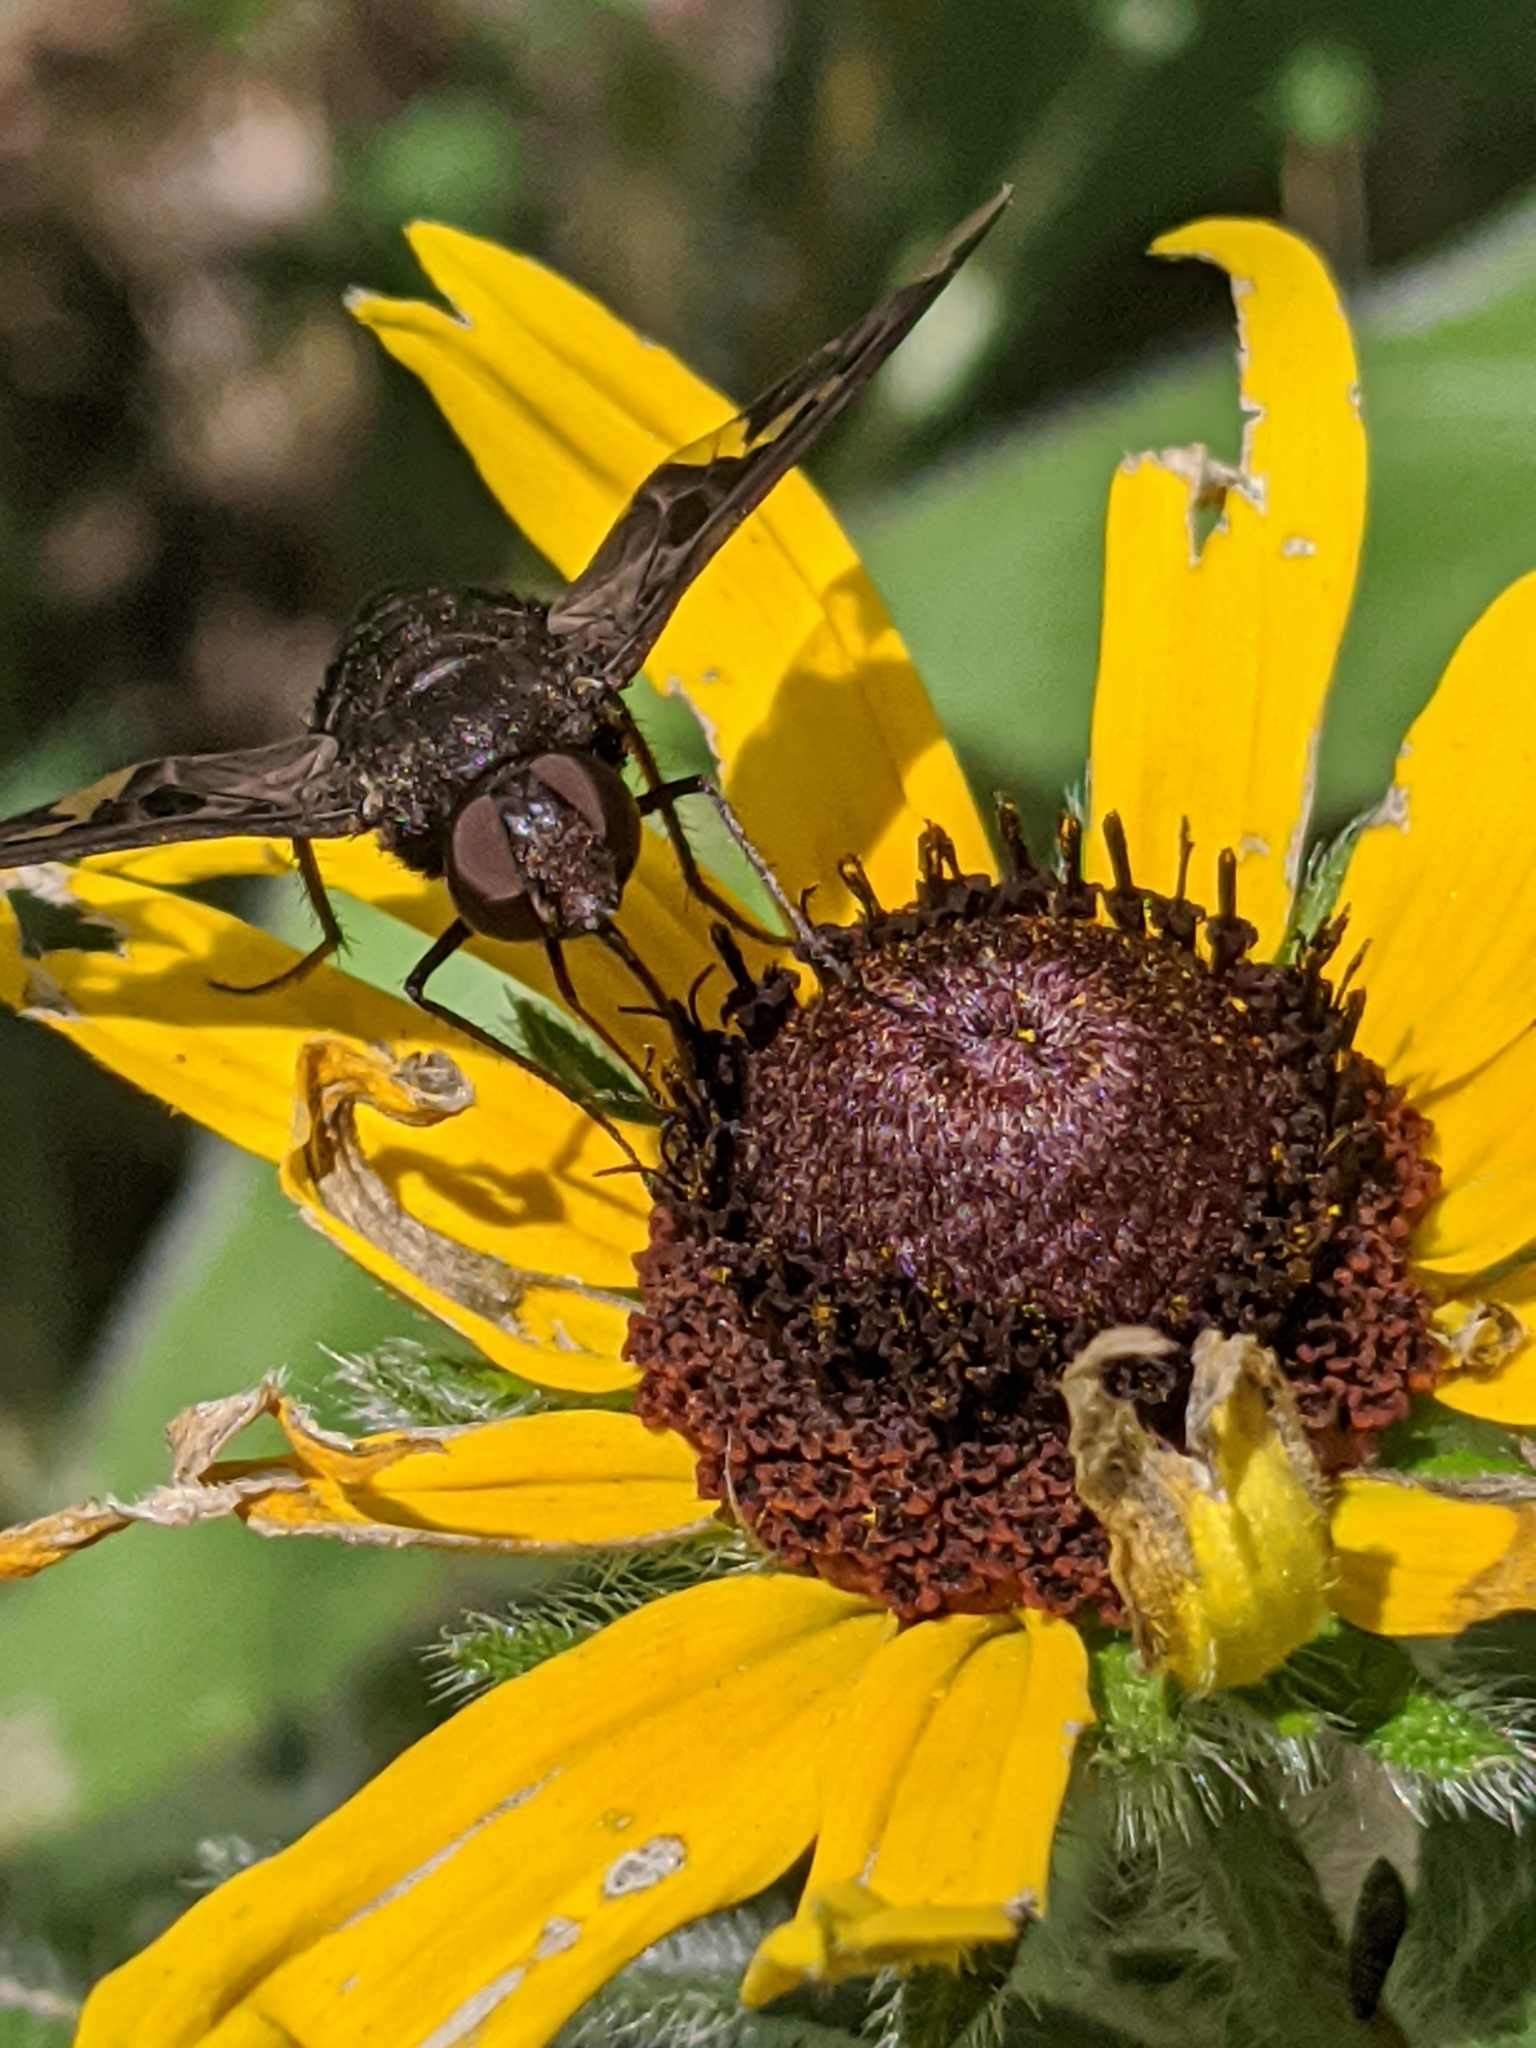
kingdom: Animalia
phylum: Arthropoda
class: Insecta
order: Diptera
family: Bombyliidae
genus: Exoprosopa
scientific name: Exoprosopa decora
